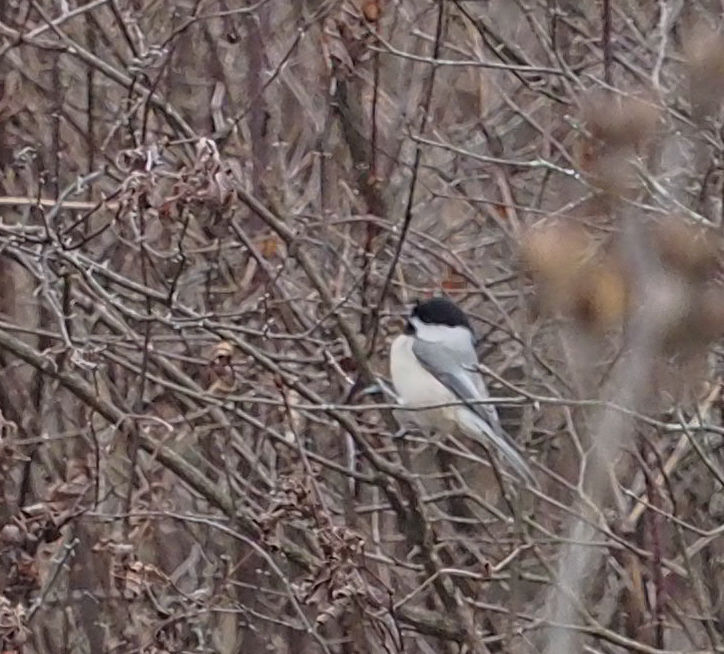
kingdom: Animalia
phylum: Chordata
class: Aves
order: Passeriformes
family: Paridae
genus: Poecile
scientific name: Poecile carolinensis
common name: Carolina chickadee
